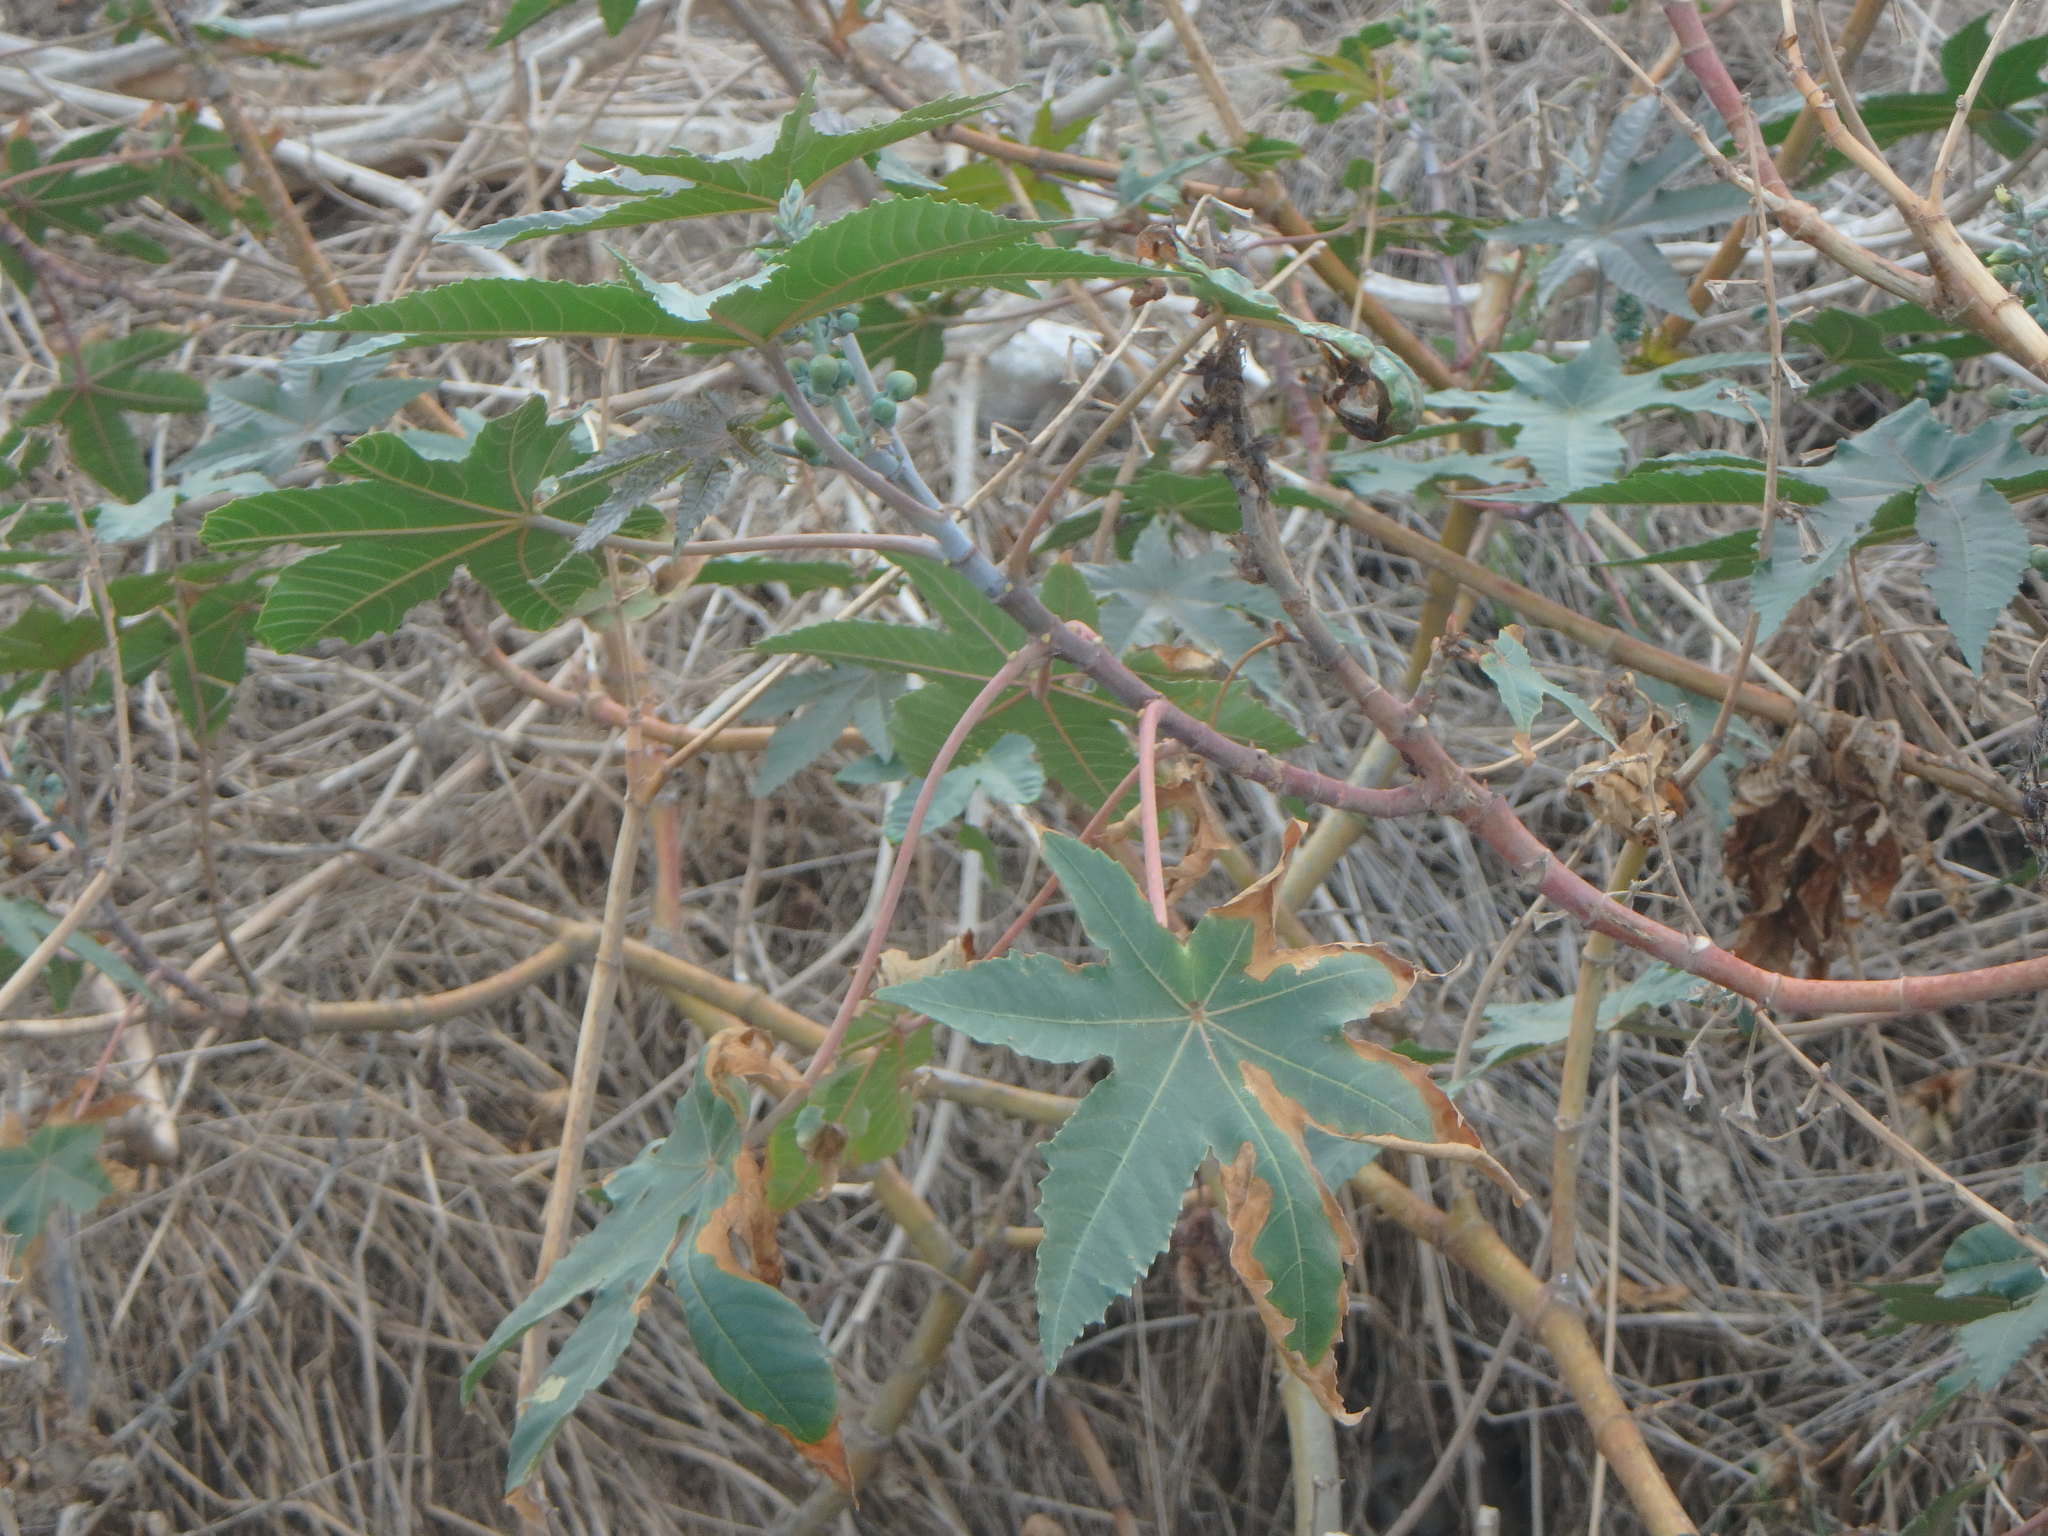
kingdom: Plantae
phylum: Tracheophyta
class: Magnoliopsida
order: Malpighiales
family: Euphorbiaceae
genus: Ricinus
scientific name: Ricinus communis
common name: Castor-oil-plant
